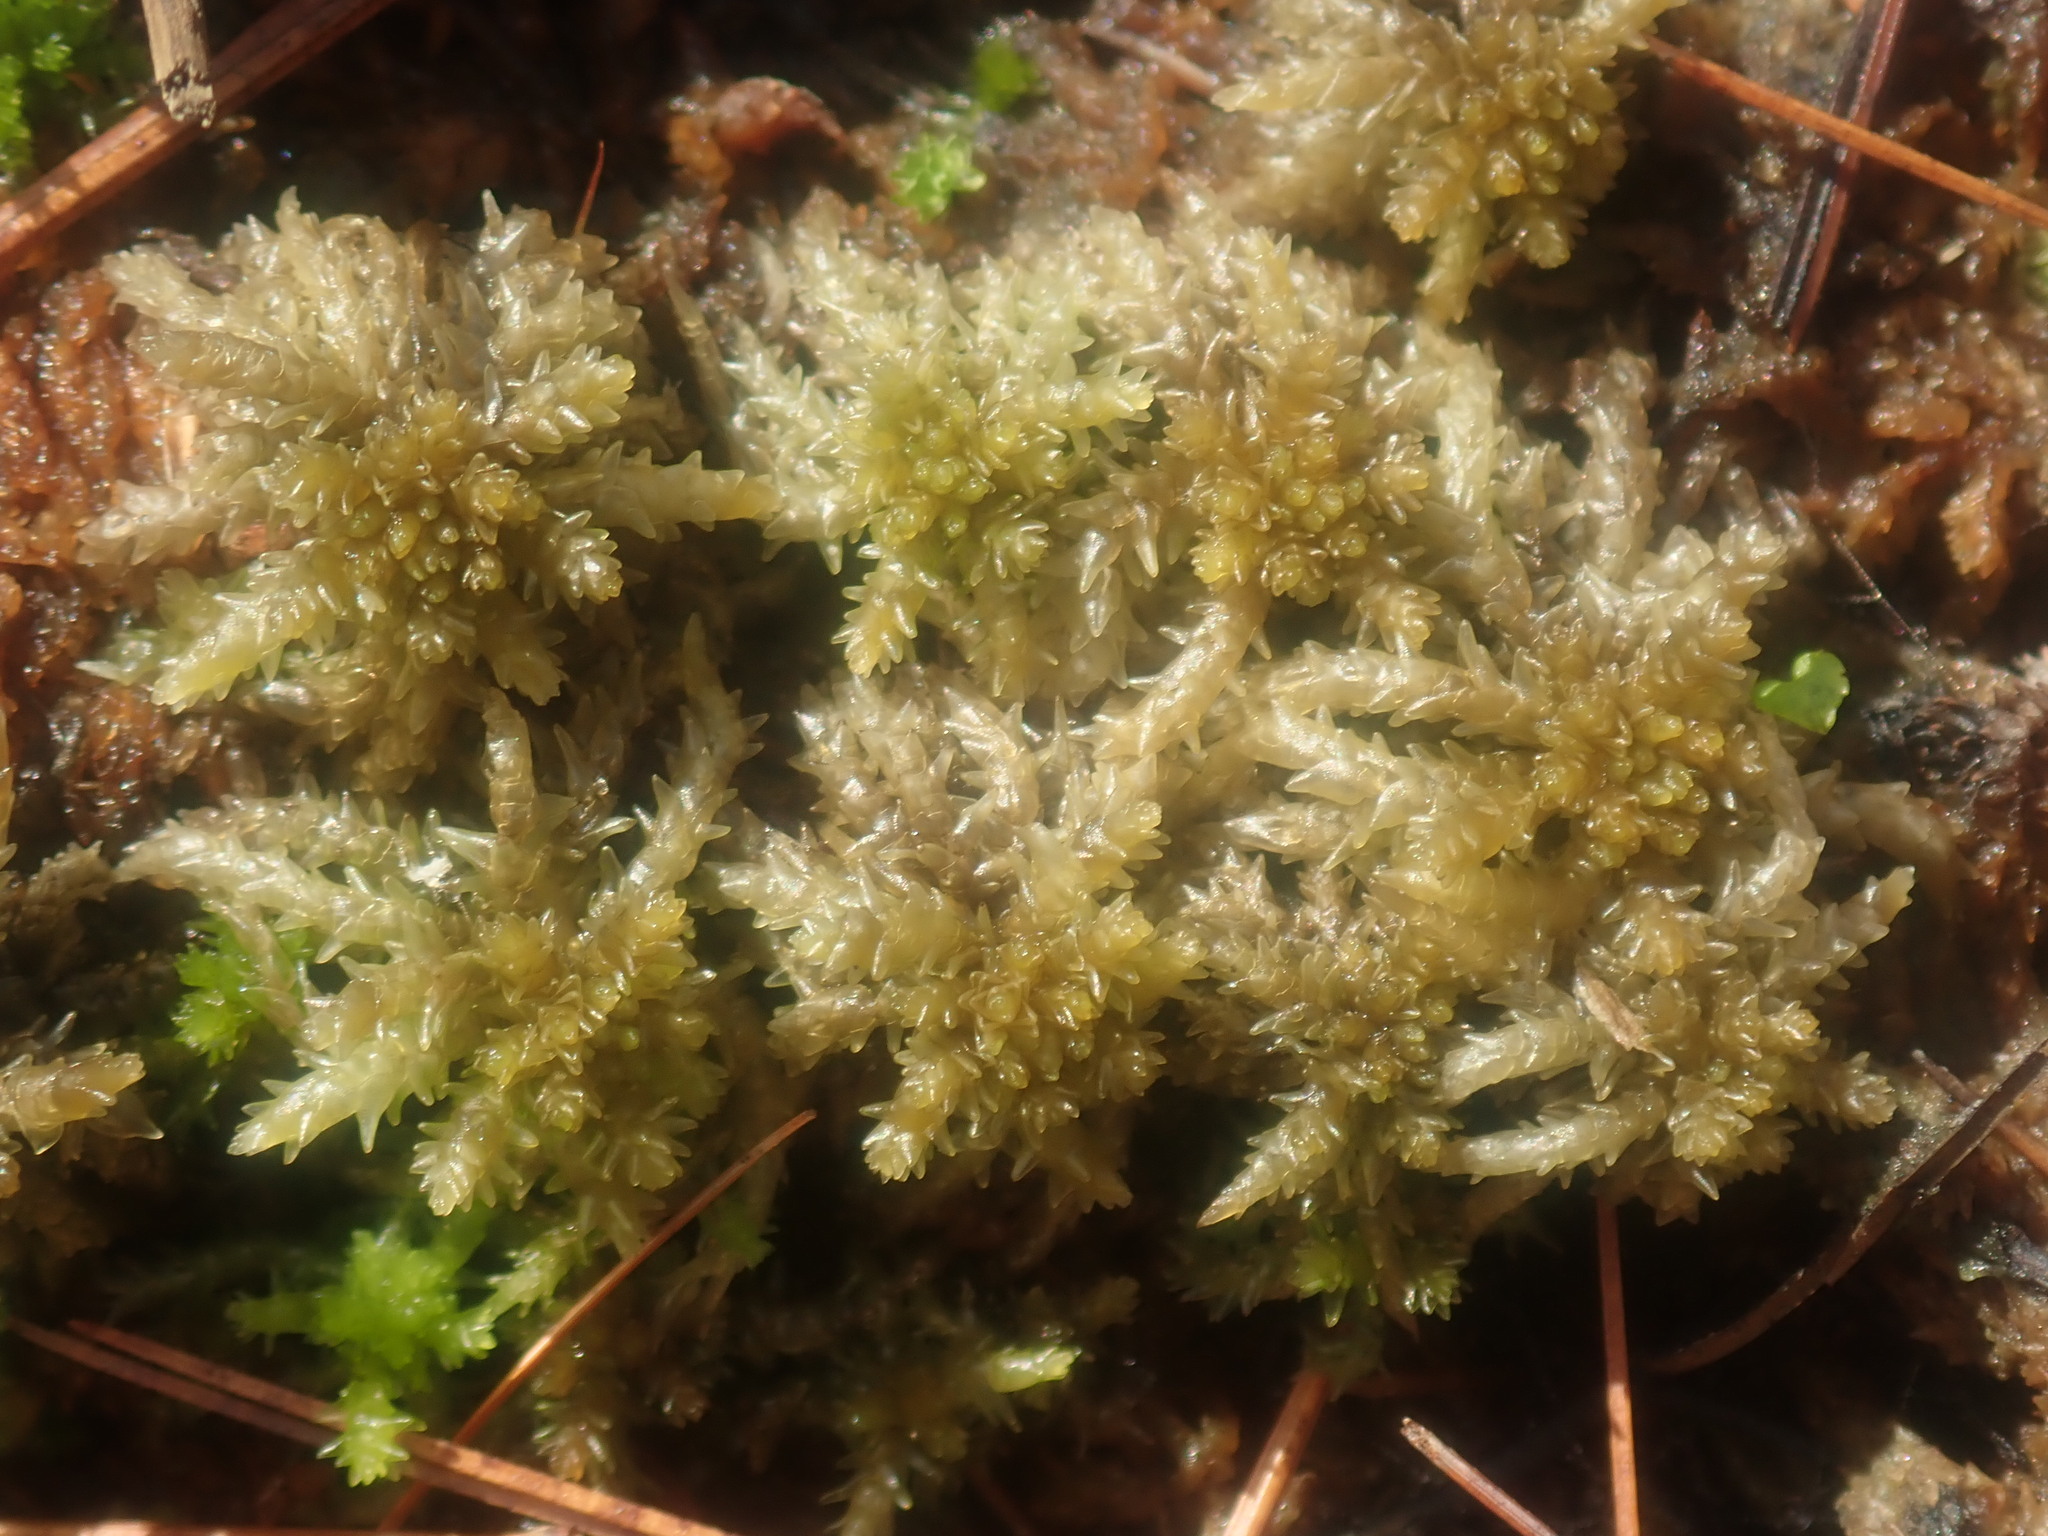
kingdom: Plantae
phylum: Bryophyta
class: Sphagnopsida
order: Sphagnales
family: Sphagnaceae
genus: Sphagnum
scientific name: Sphagnum
